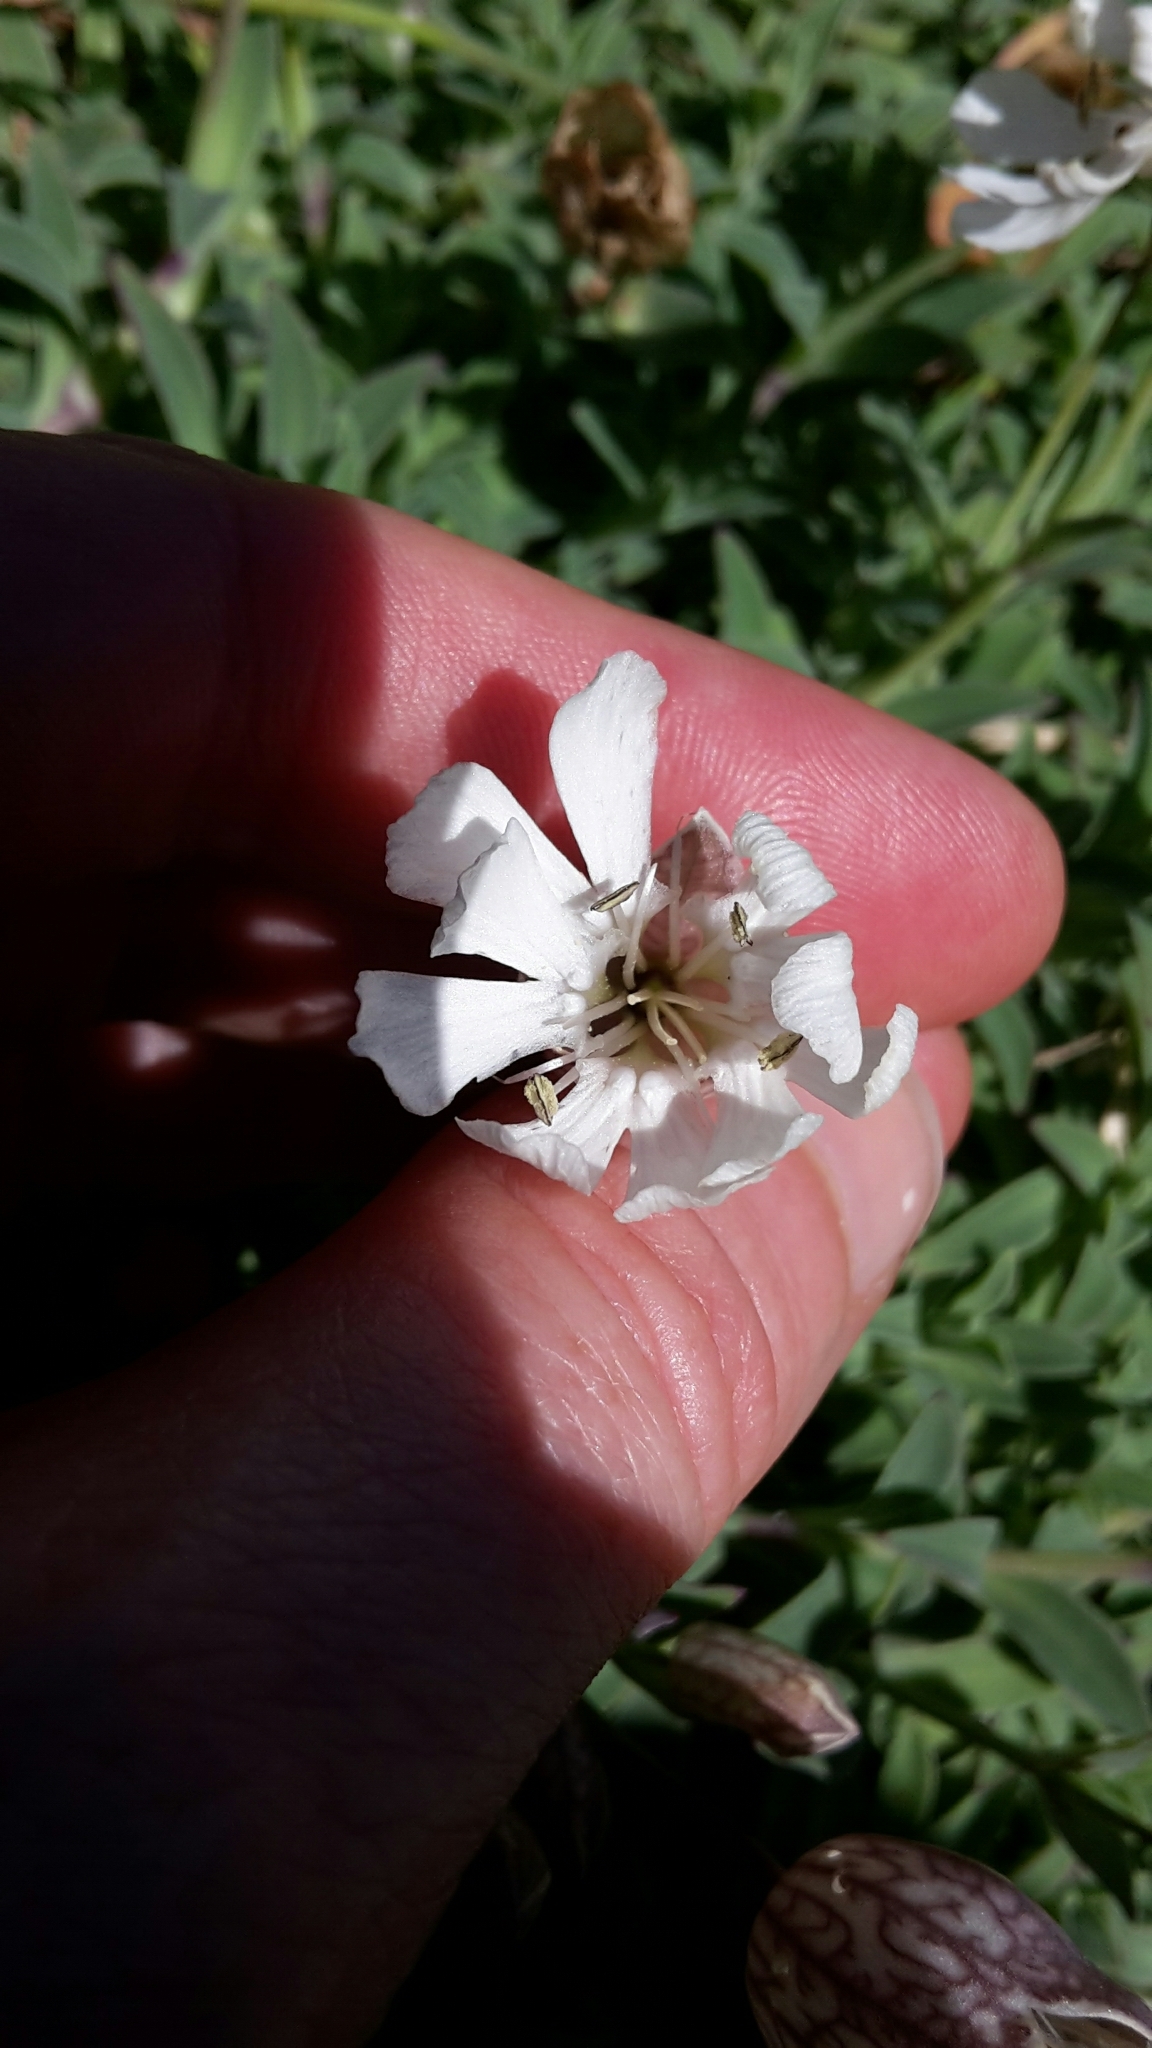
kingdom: Plantae
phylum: Tracheophyta
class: Magnoliopsida
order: Caryophyllales
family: Caryophyllaceae
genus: Silene
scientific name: Silene uniflora
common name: Sea campion
